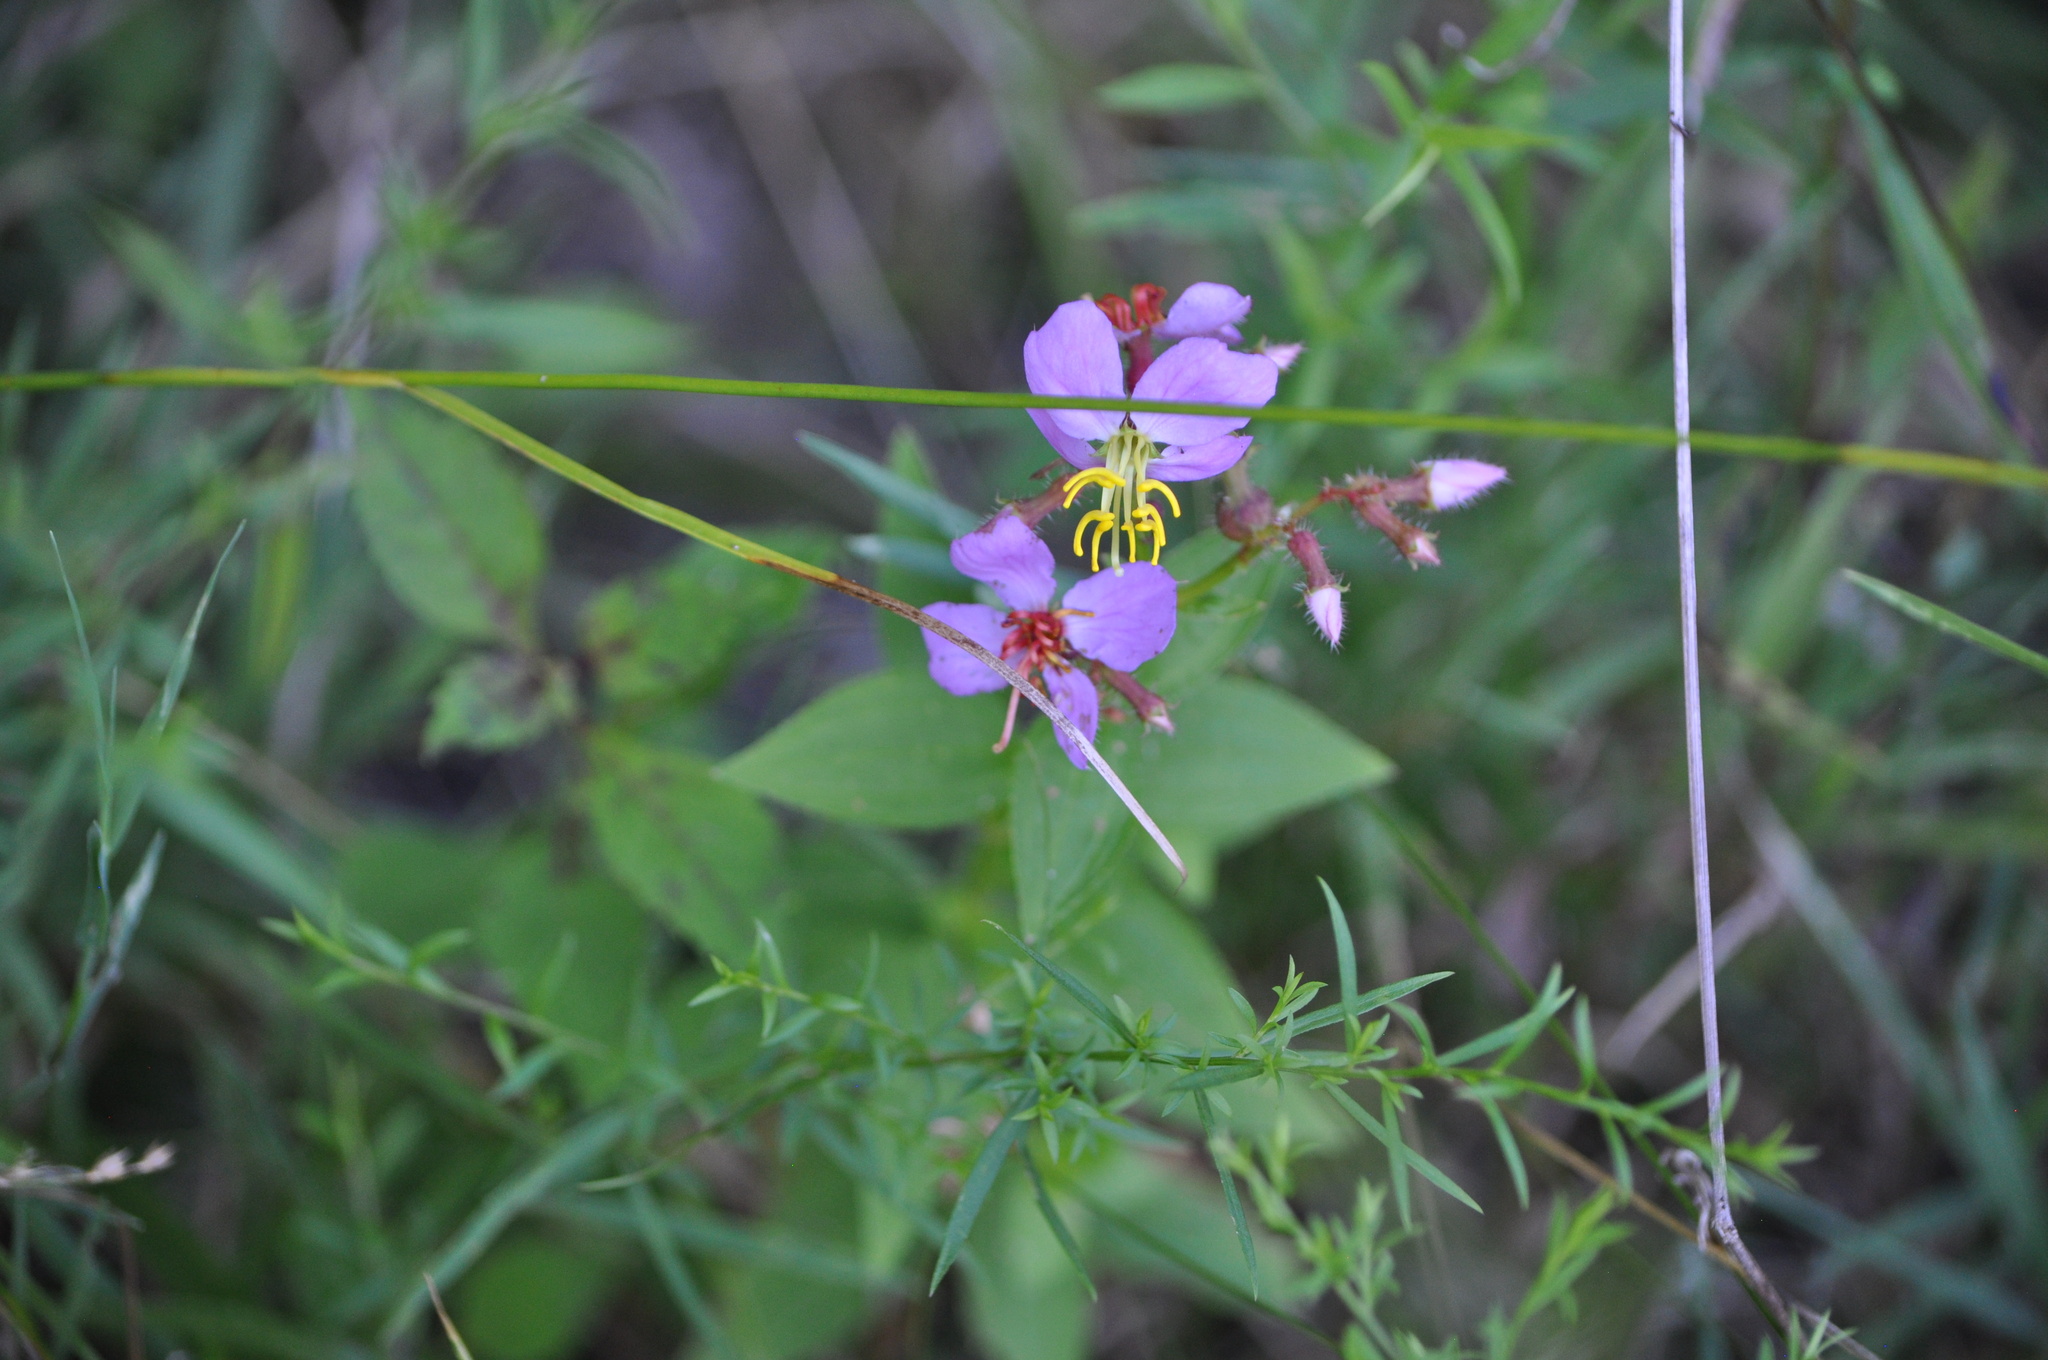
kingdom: Plantae
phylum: Tracheophyta
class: Magnoliopsida
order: Myrtales
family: Melastomataceae
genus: Rhexia
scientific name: Rhexia virginica
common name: Common meadow beauty
